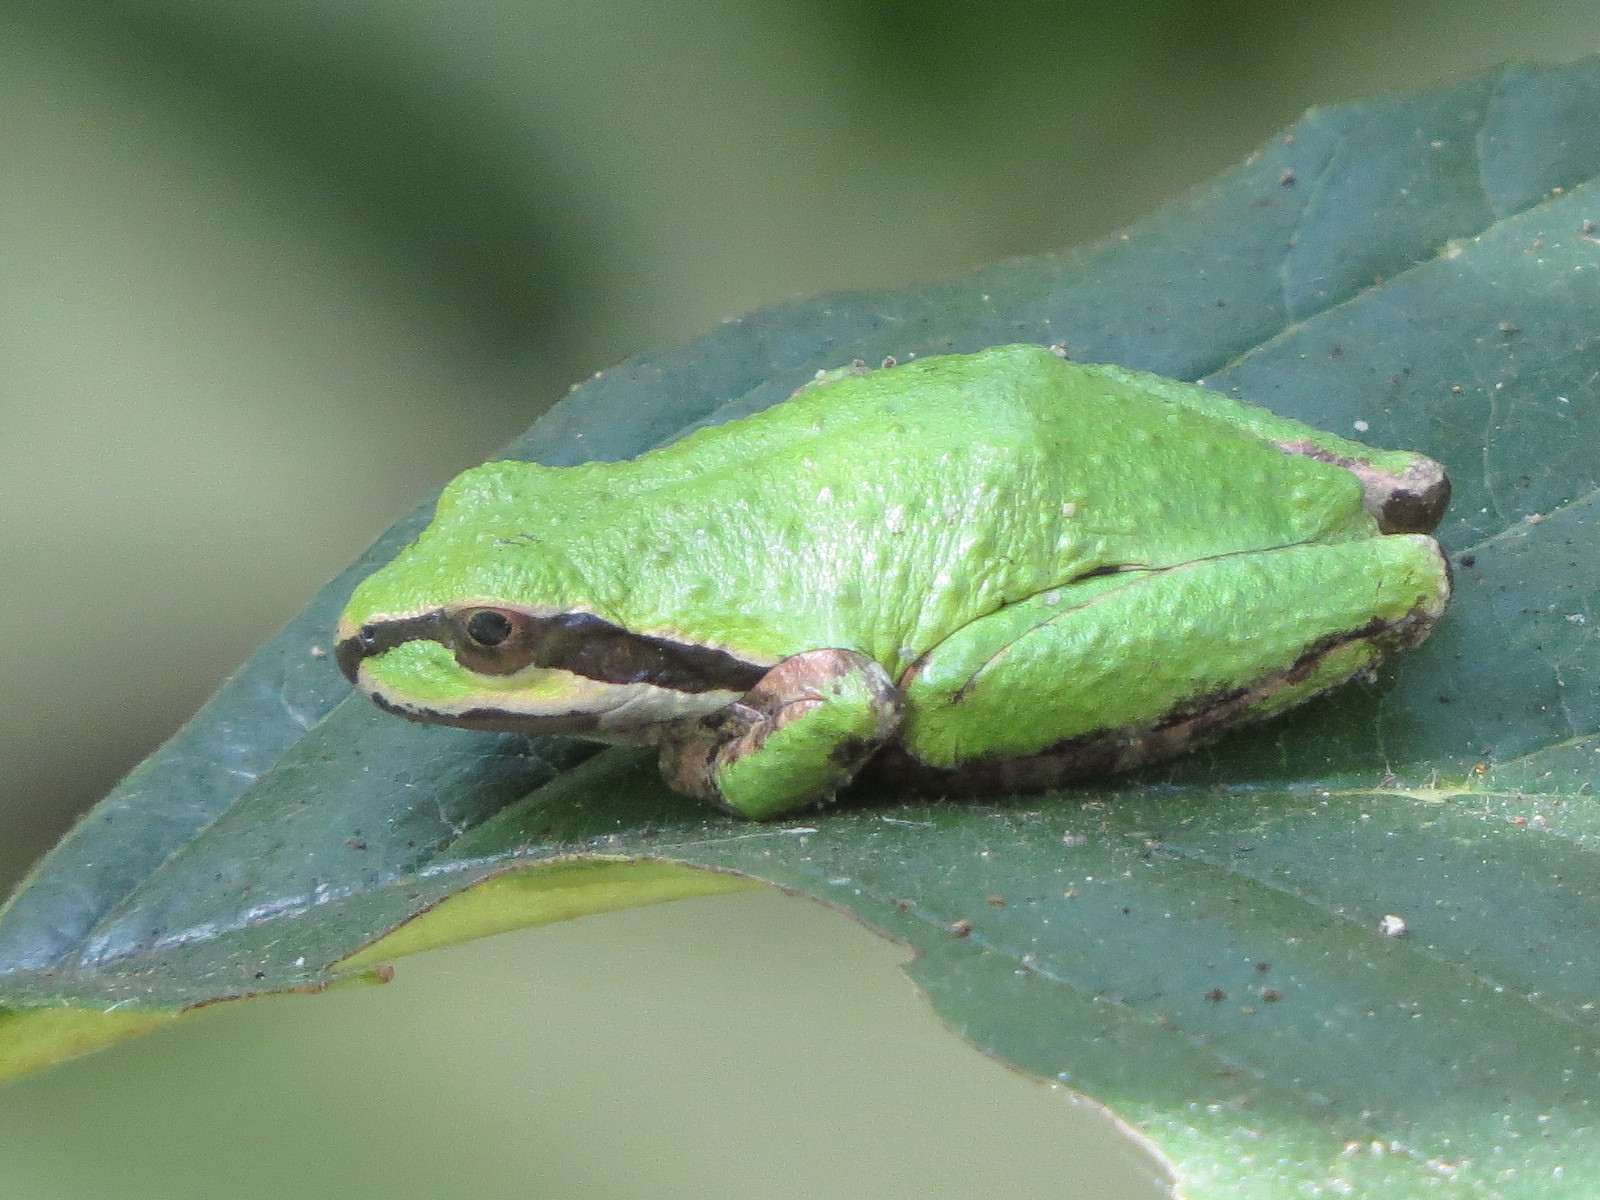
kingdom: Animalia
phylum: Chordata
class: Amphibia
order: Anura
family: Hylidae
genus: Pseudacris
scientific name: Pseudacris regilla
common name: Pacific chorus frog
